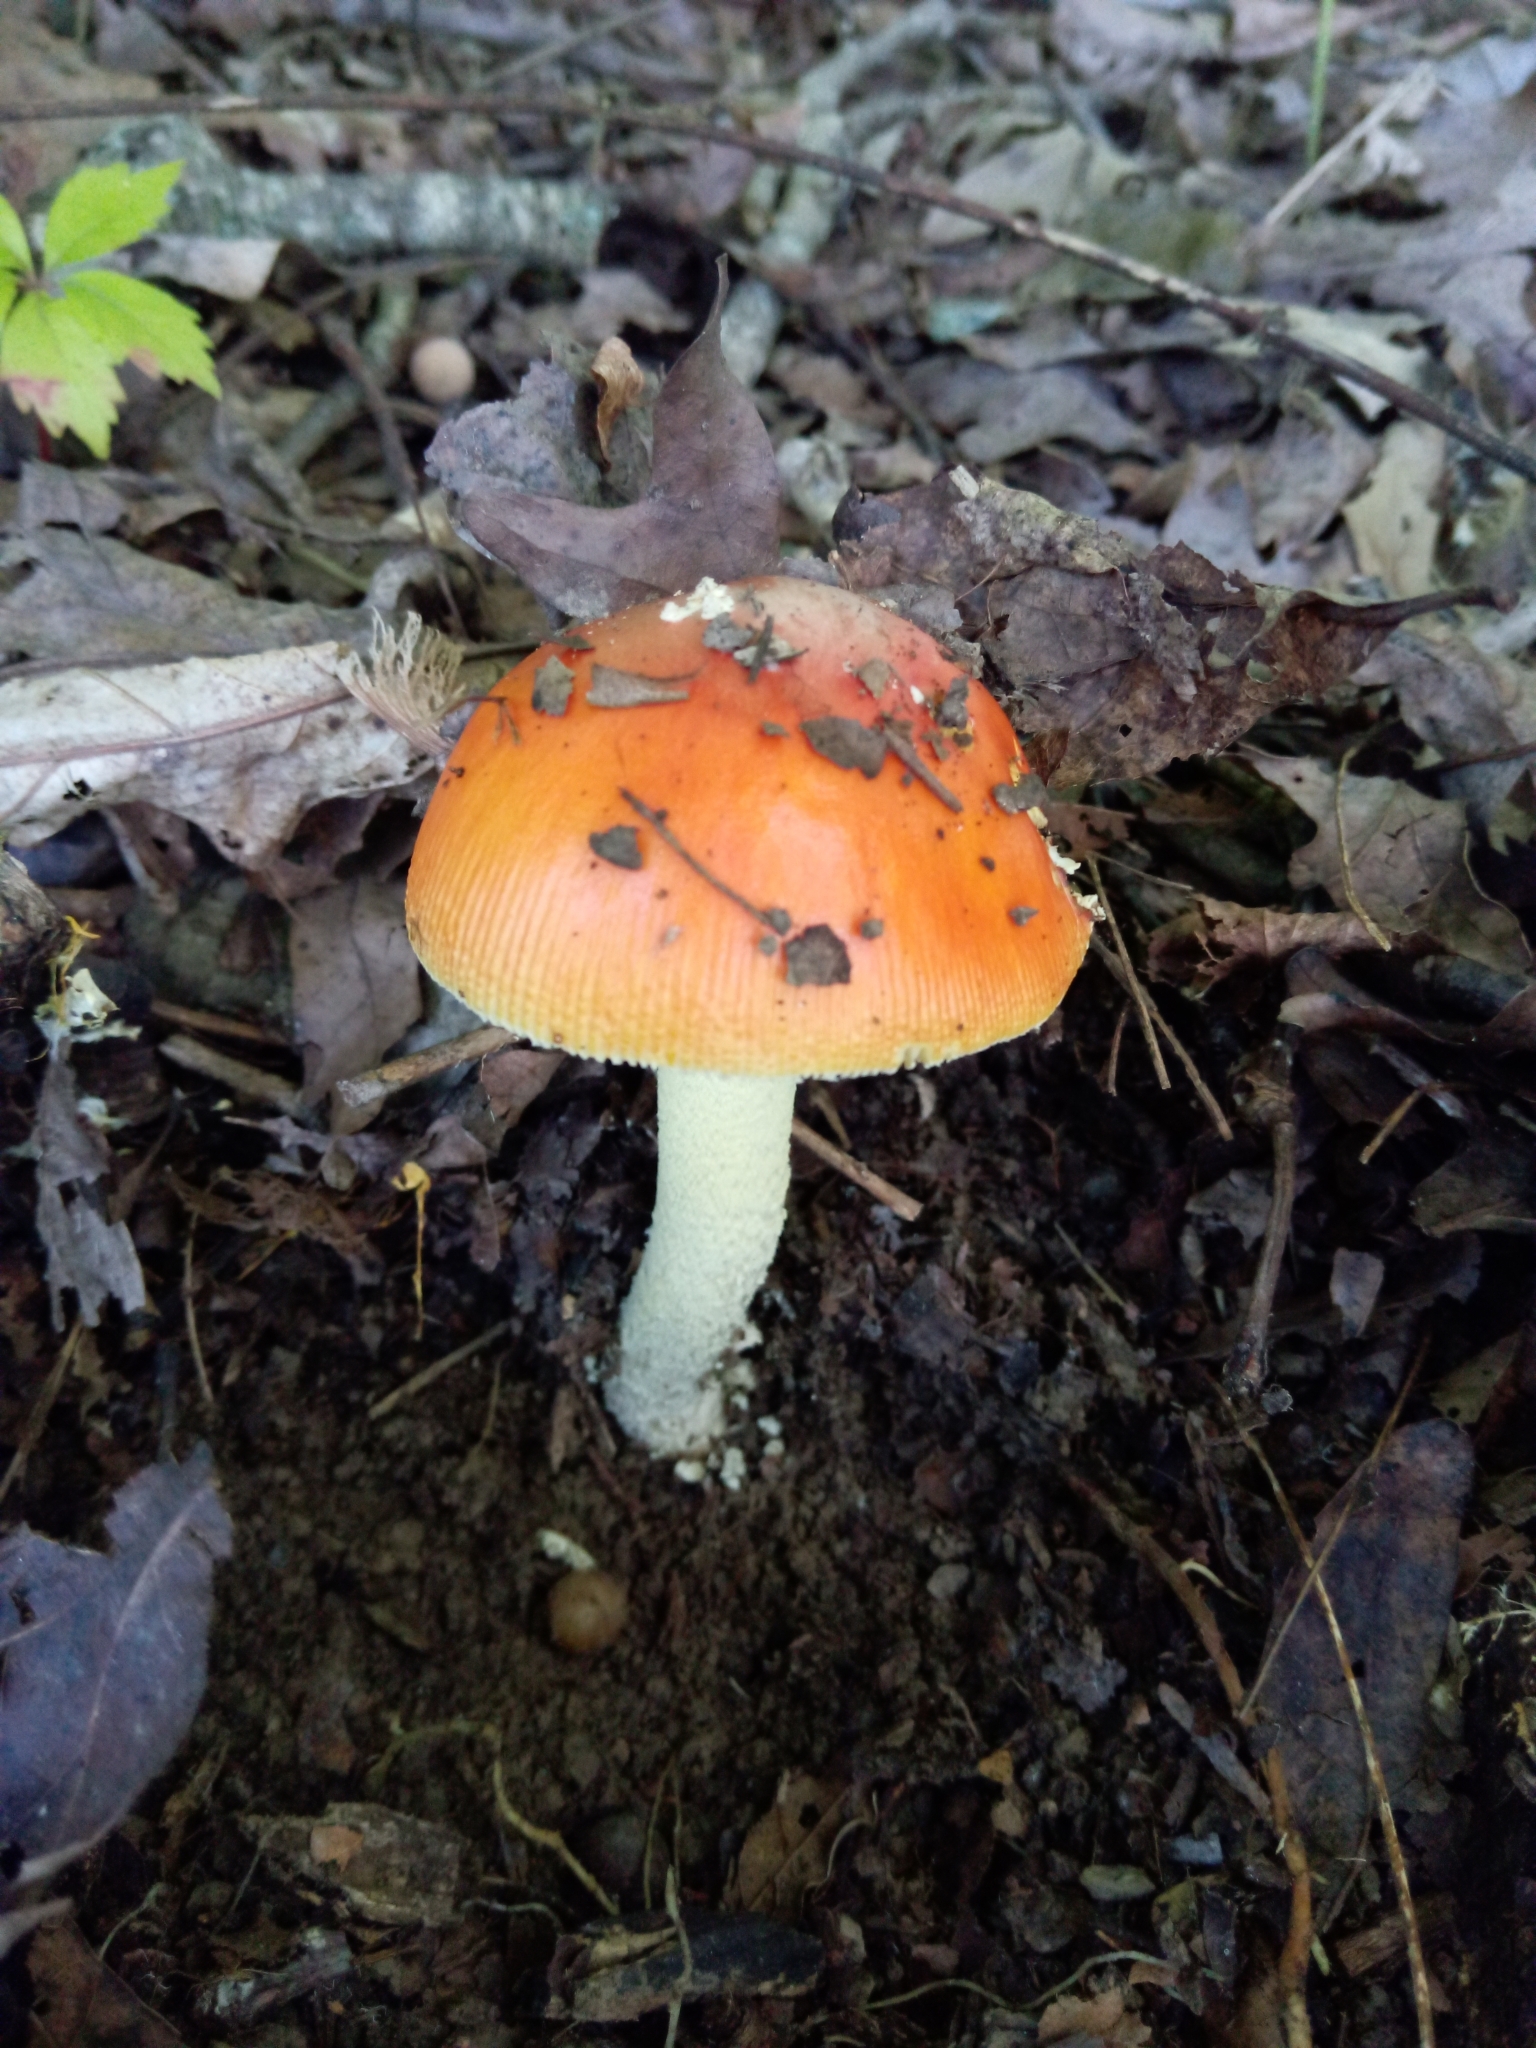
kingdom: Fungi
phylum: Basidiomycota
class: Agaricomycetes
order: Agaricales
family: Amanitaceae
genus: Amanita
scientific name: Amanita parcivolvata
